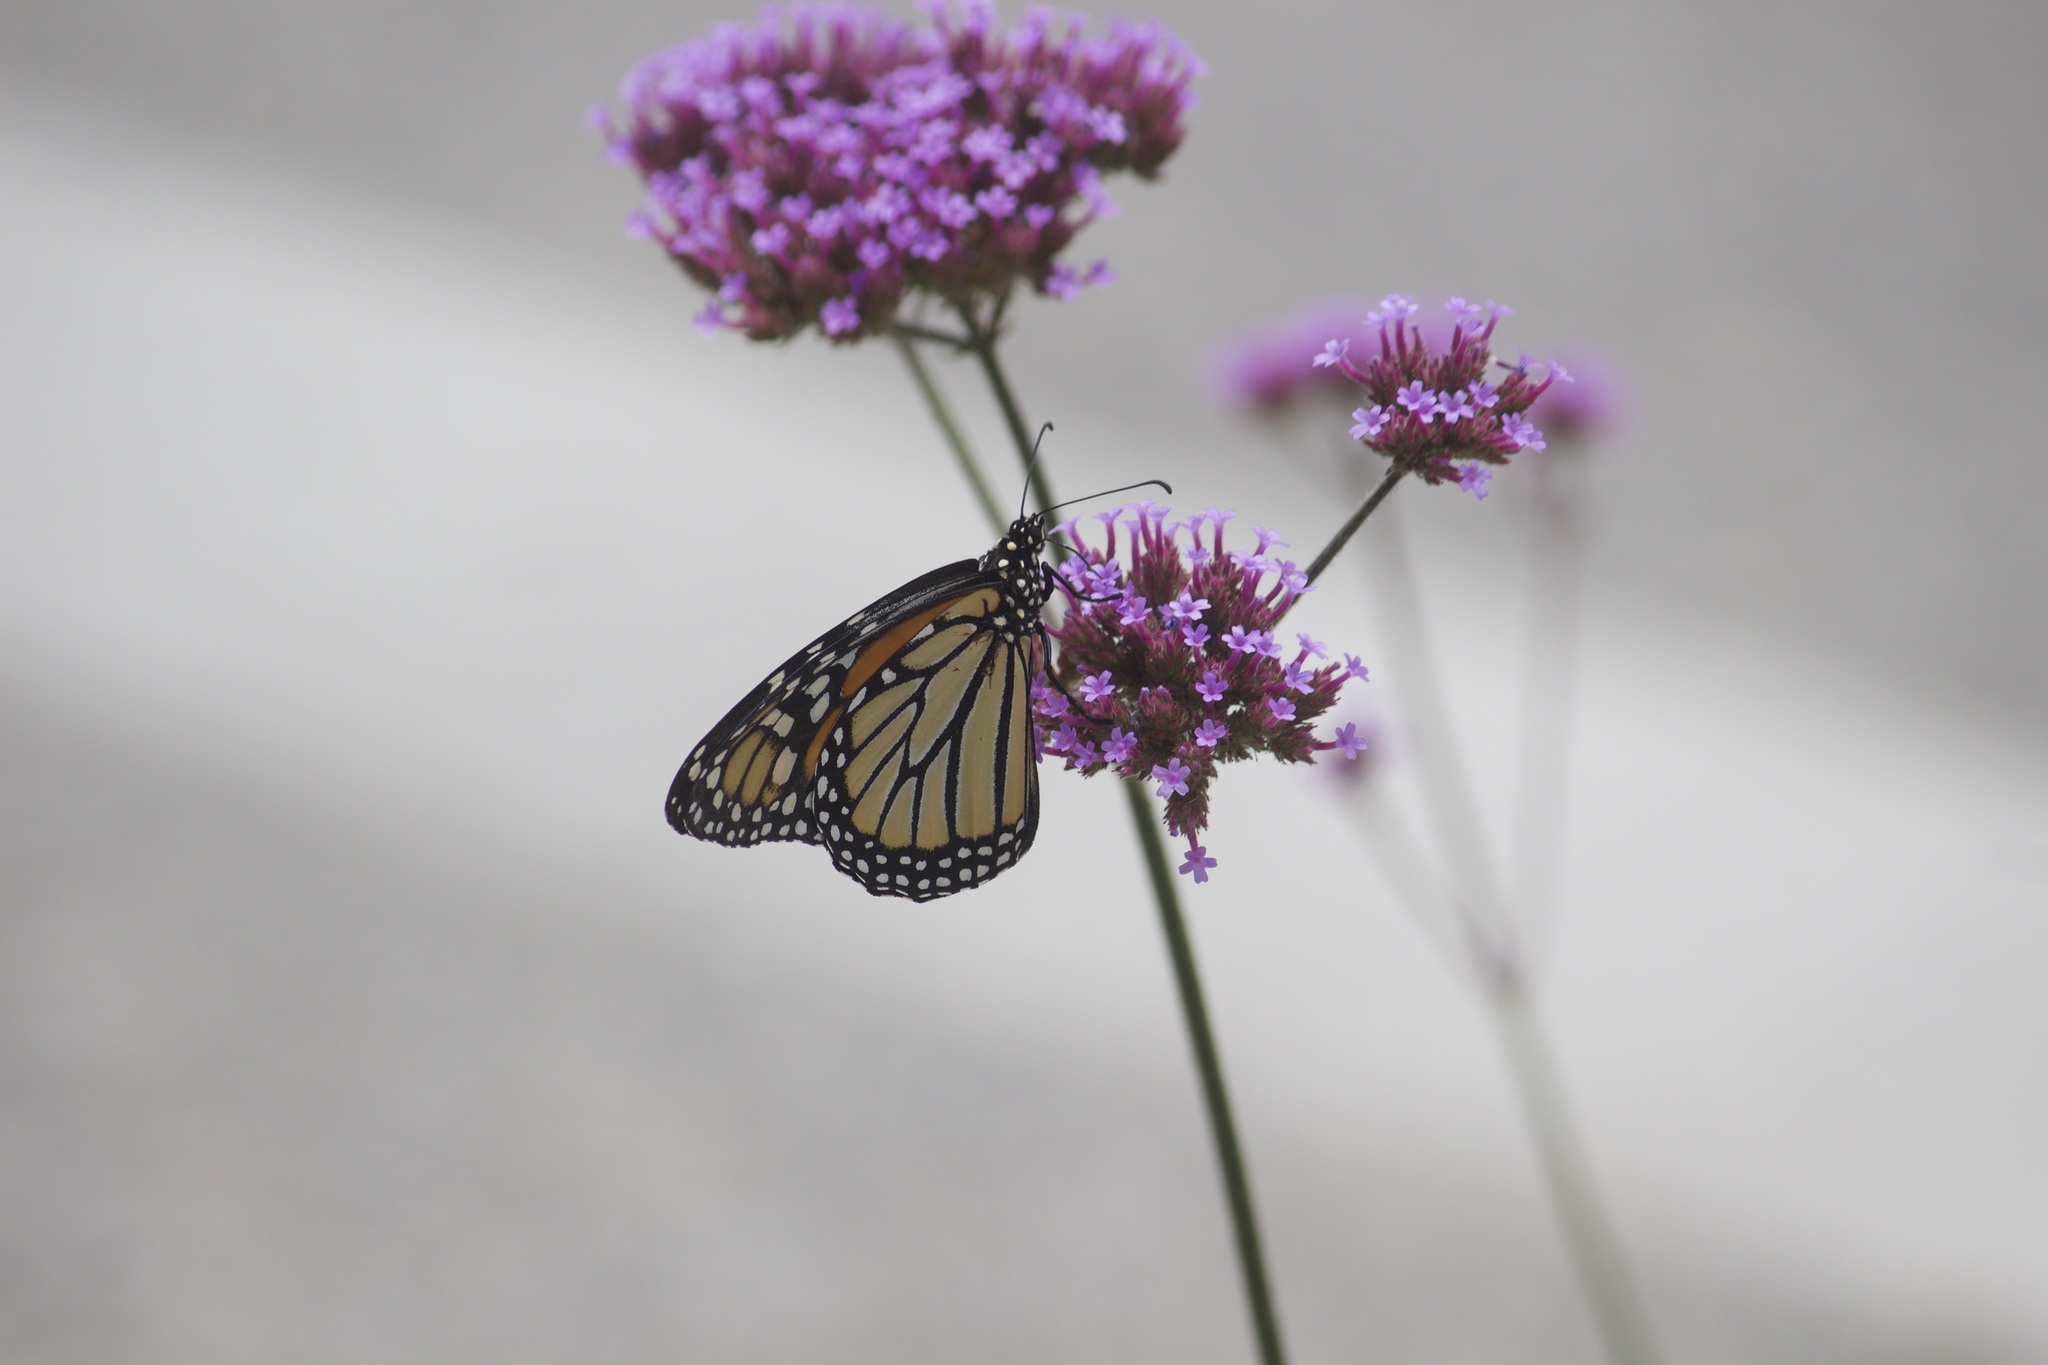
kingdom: Animalia
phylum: Arthropoda
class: Insecta
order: Lepidoptera
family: Nymphalidae
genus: Danaus
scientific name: Danaus plexippus
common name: Monarch
